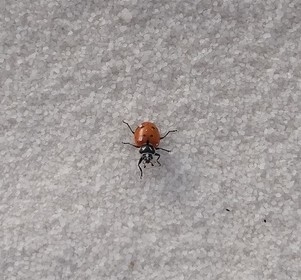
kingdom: Animalia
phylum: Arthropoda
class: Insecta
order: Coleoptera
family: Coccinellidae
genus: Hippodamia
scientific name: Hippodamia convergens
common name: Convergent lady beetle
